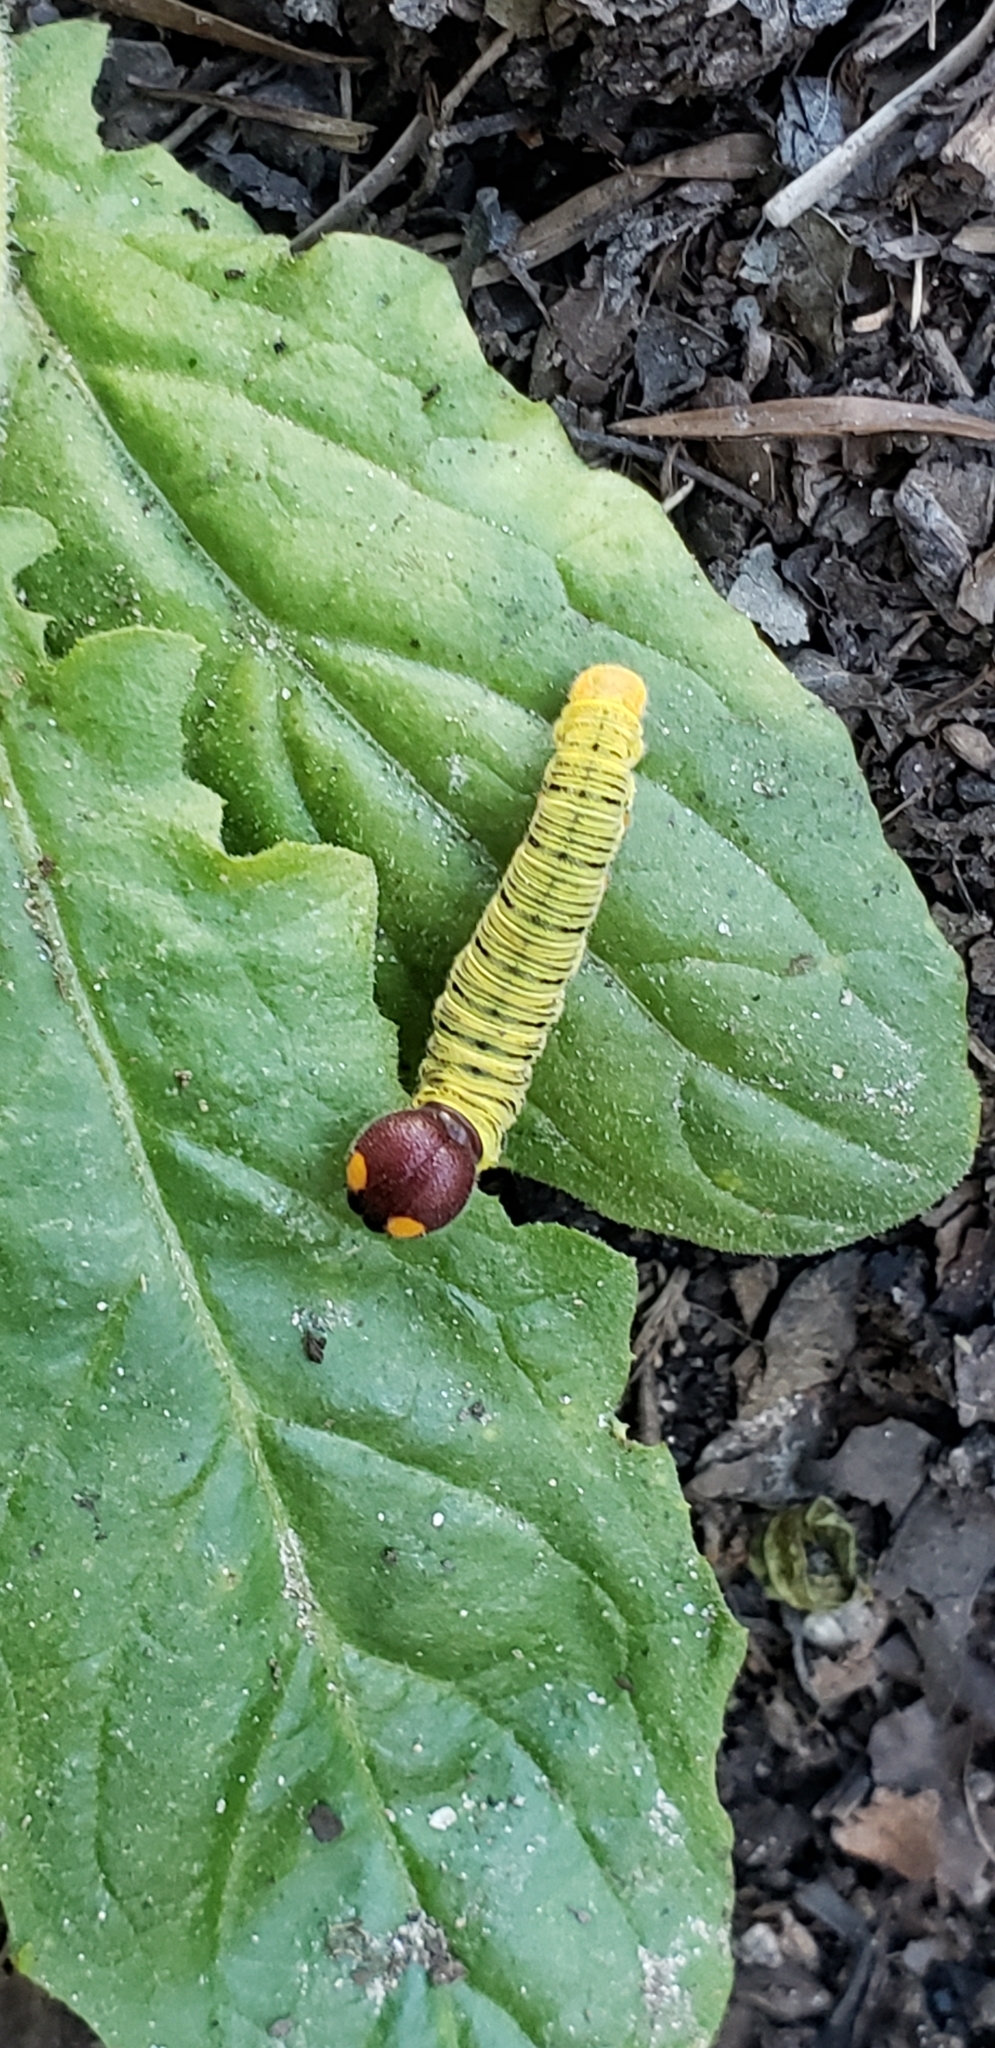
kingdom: Animalia
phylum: Arthropoda
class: Insecta
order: Lepidoptera
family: Hesperiidae
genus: Epargyreus
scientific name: Epargyreus clarus
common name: Silver-spotted skipper
